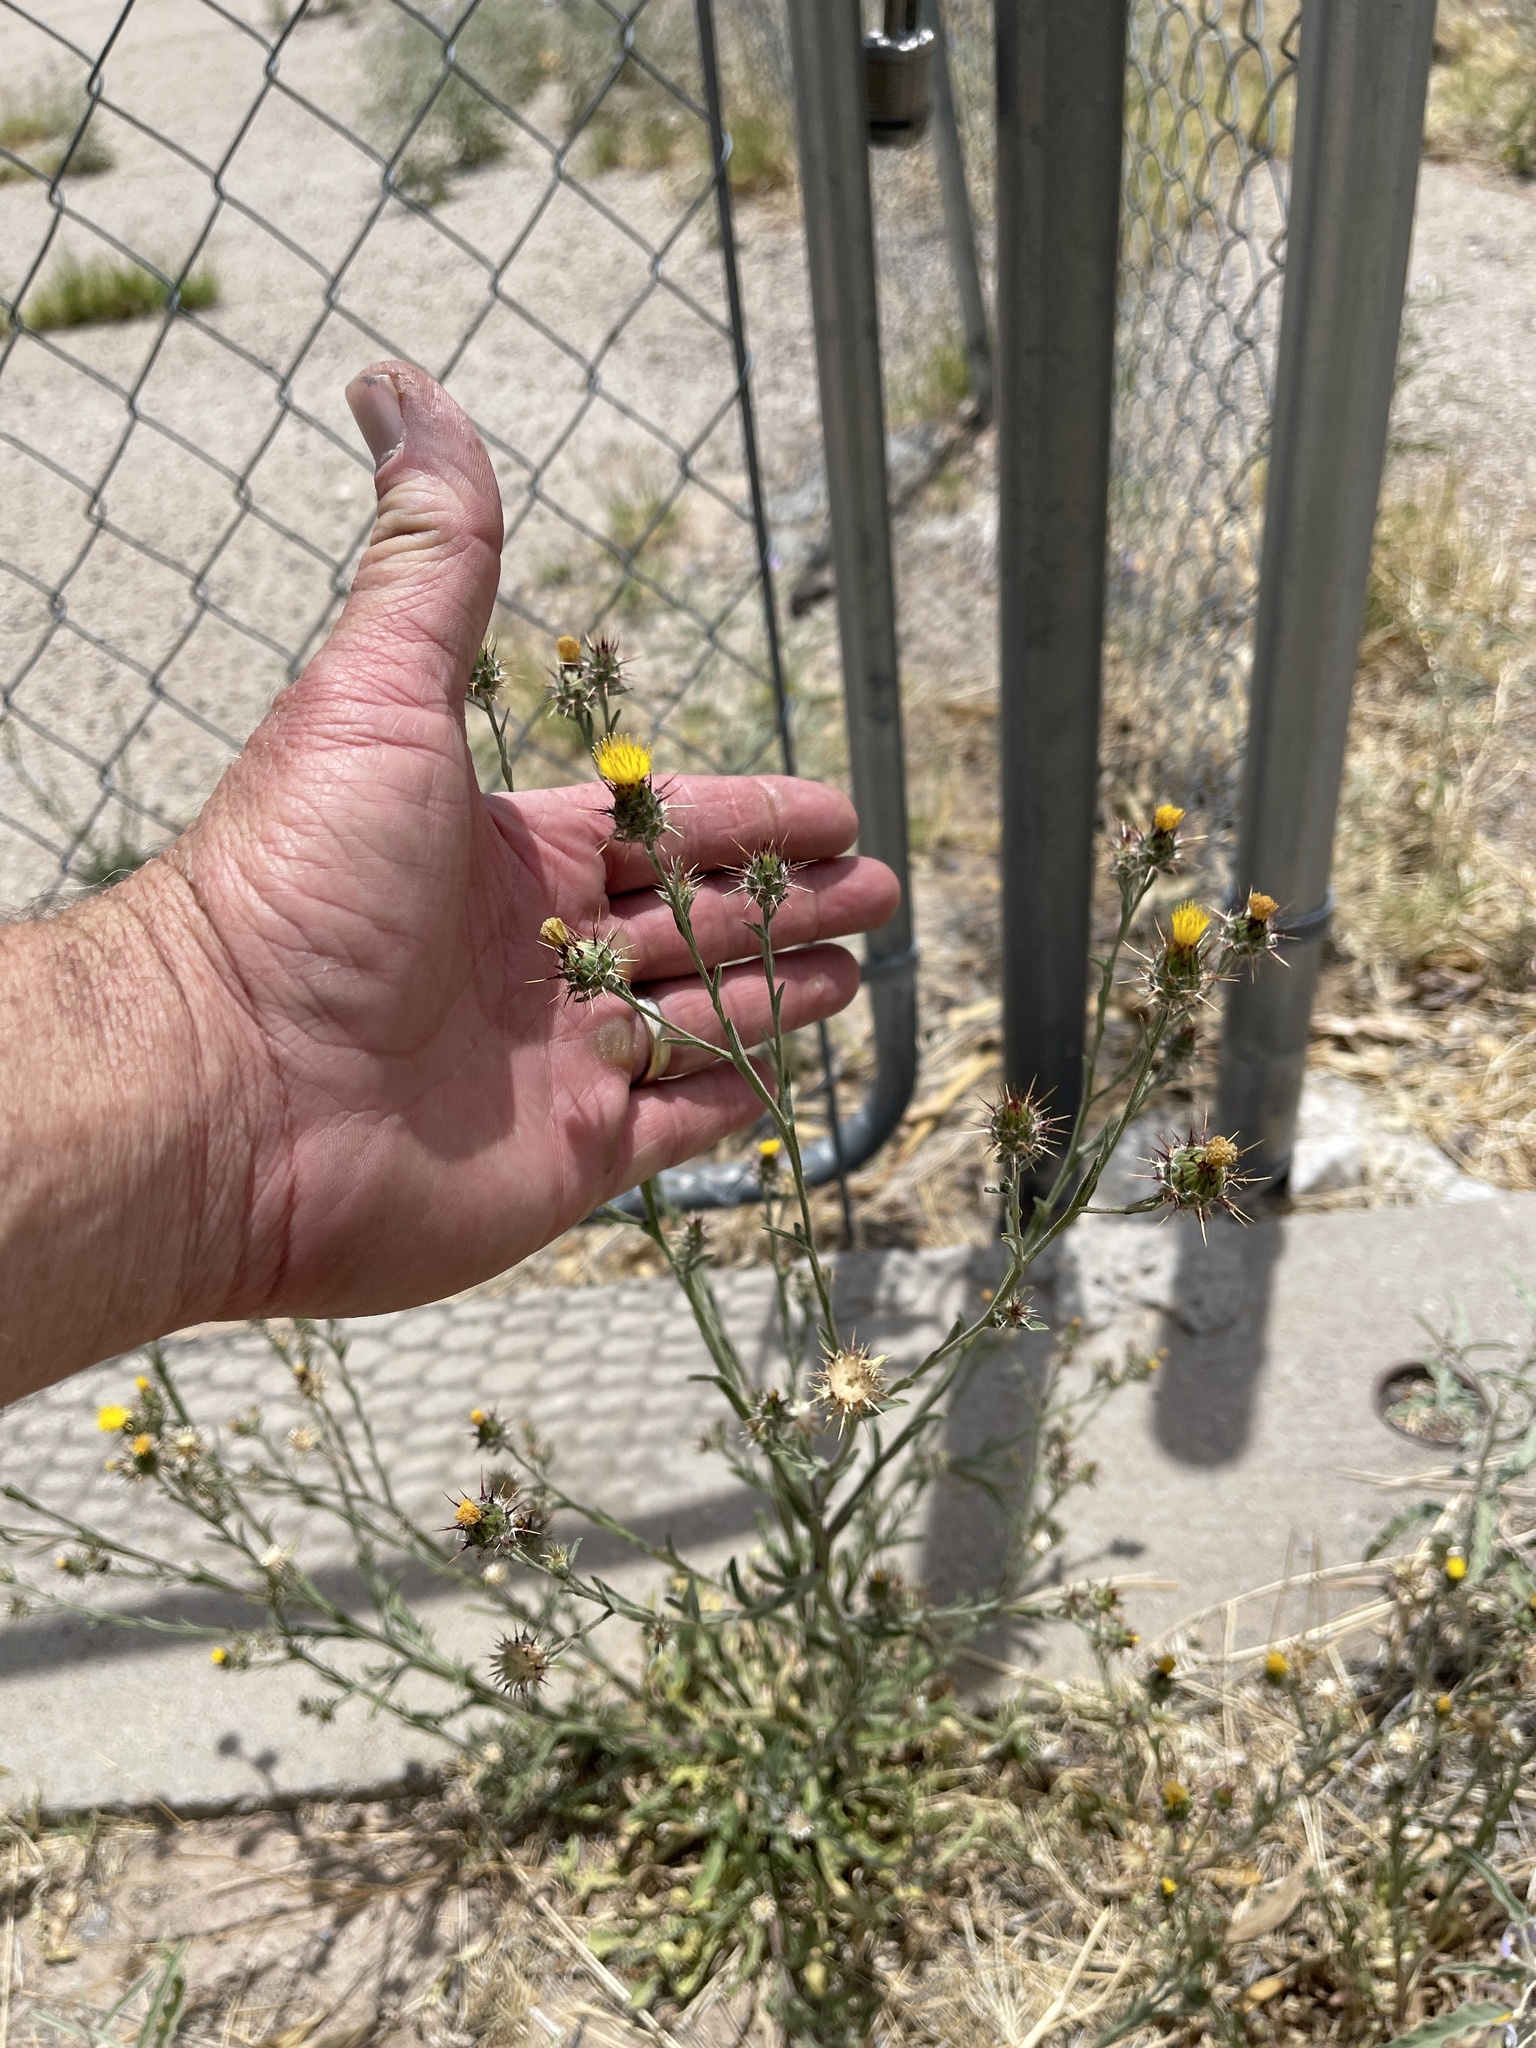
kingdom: Plantae
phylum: Tracheophyta
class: Magnoliopsida
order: Asterales
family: Asteraceae
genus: Centaurea
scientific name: Centaurea melitensis
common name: Maltese star-thistle
